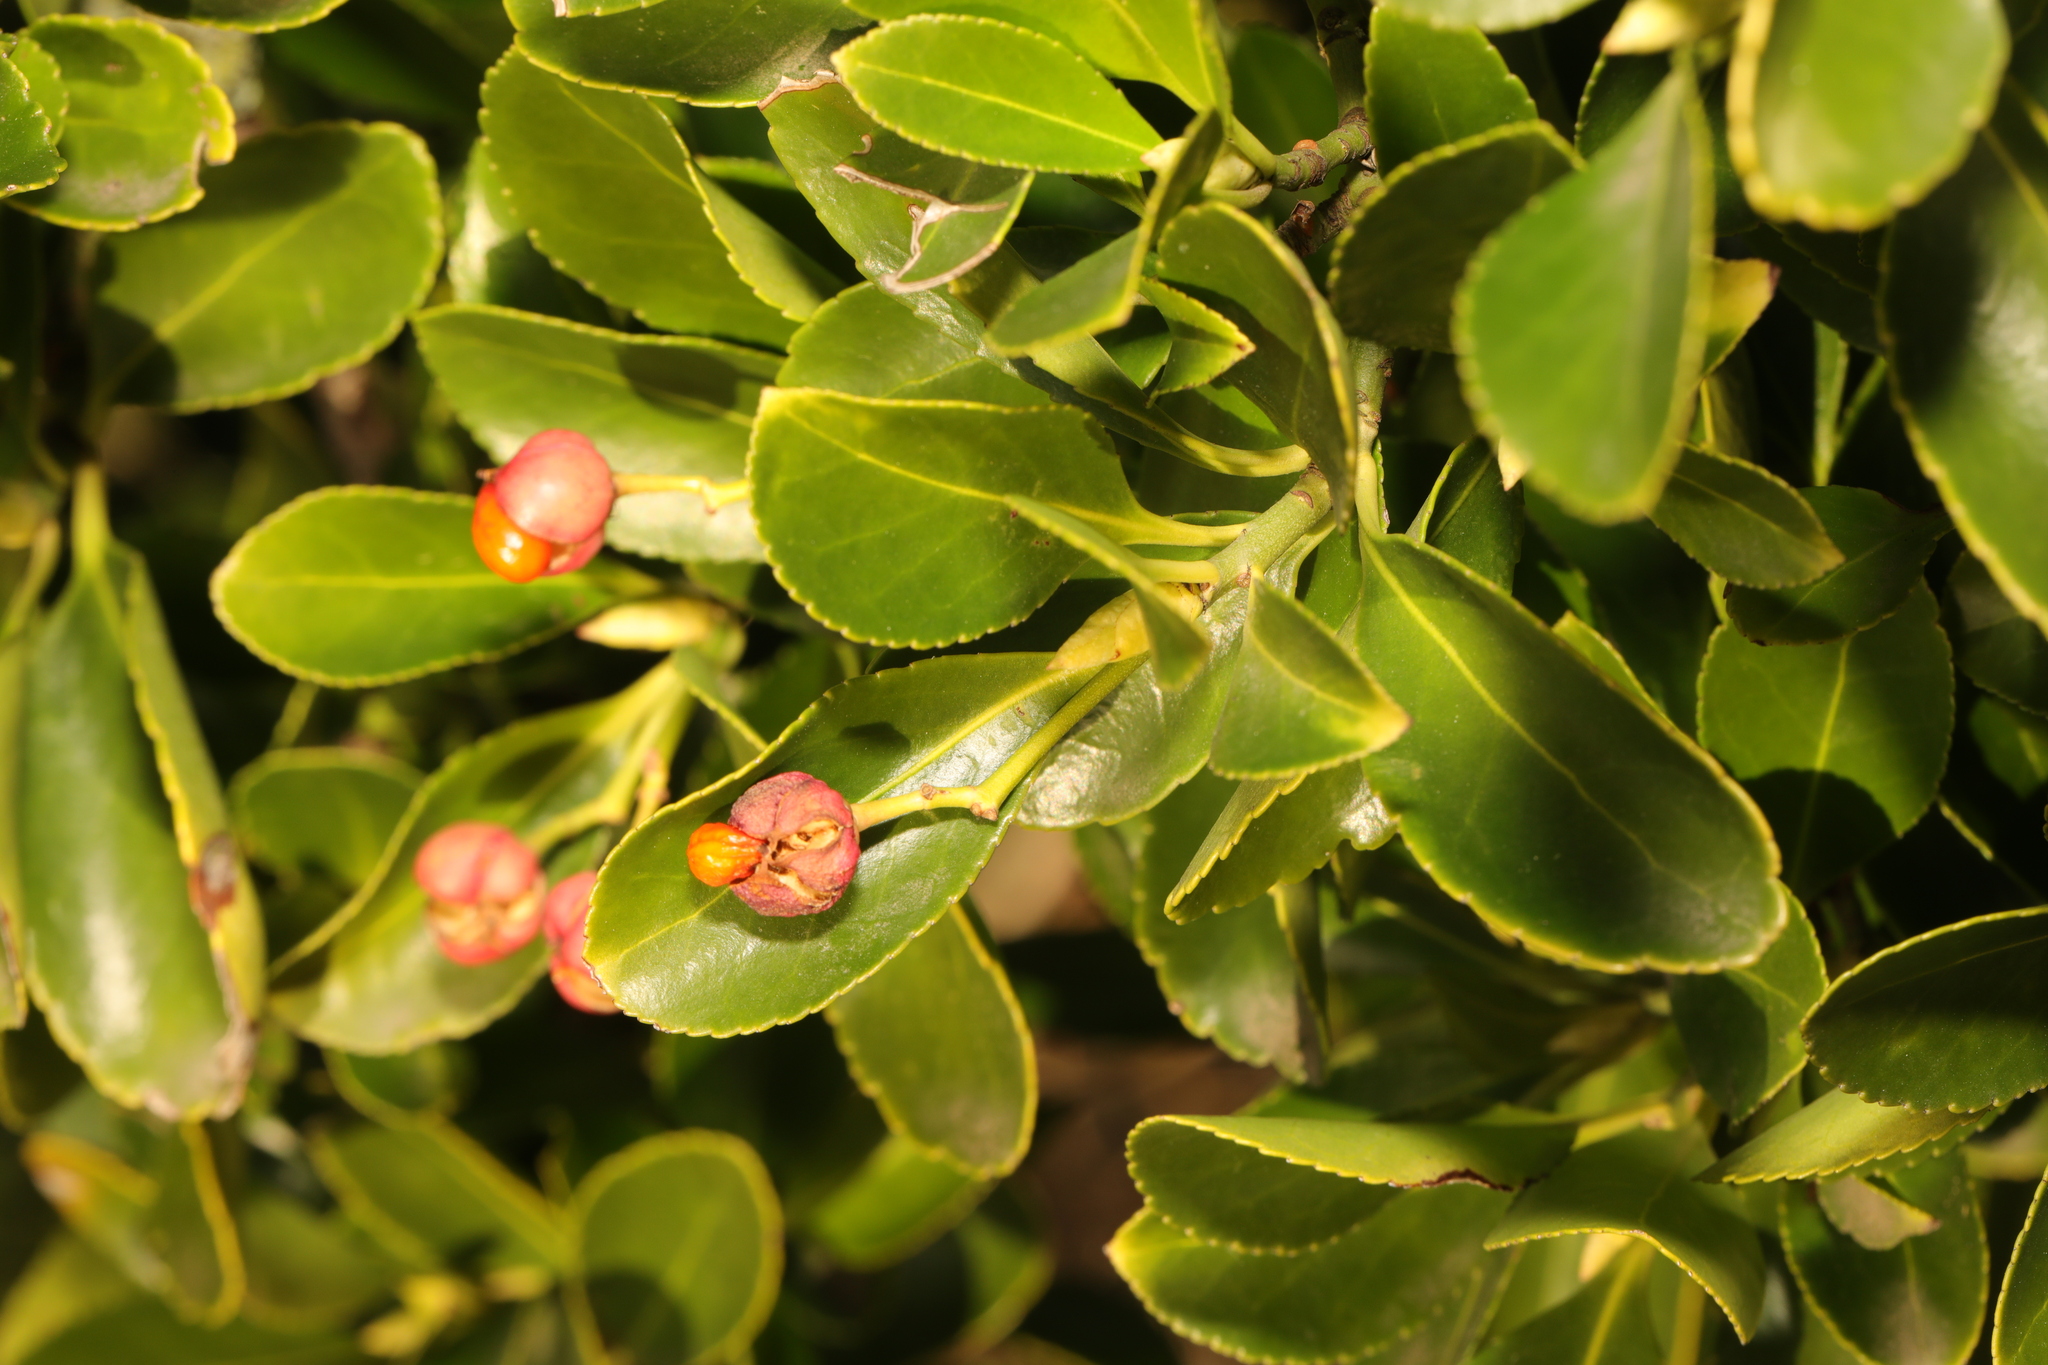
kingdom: Plantae
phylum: Tracheophyta
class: Magnoliopsida
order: Celastrales
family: Celastraceae
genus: Euonymus
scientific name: Euonymus japonicus
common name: Japanese spindletree
